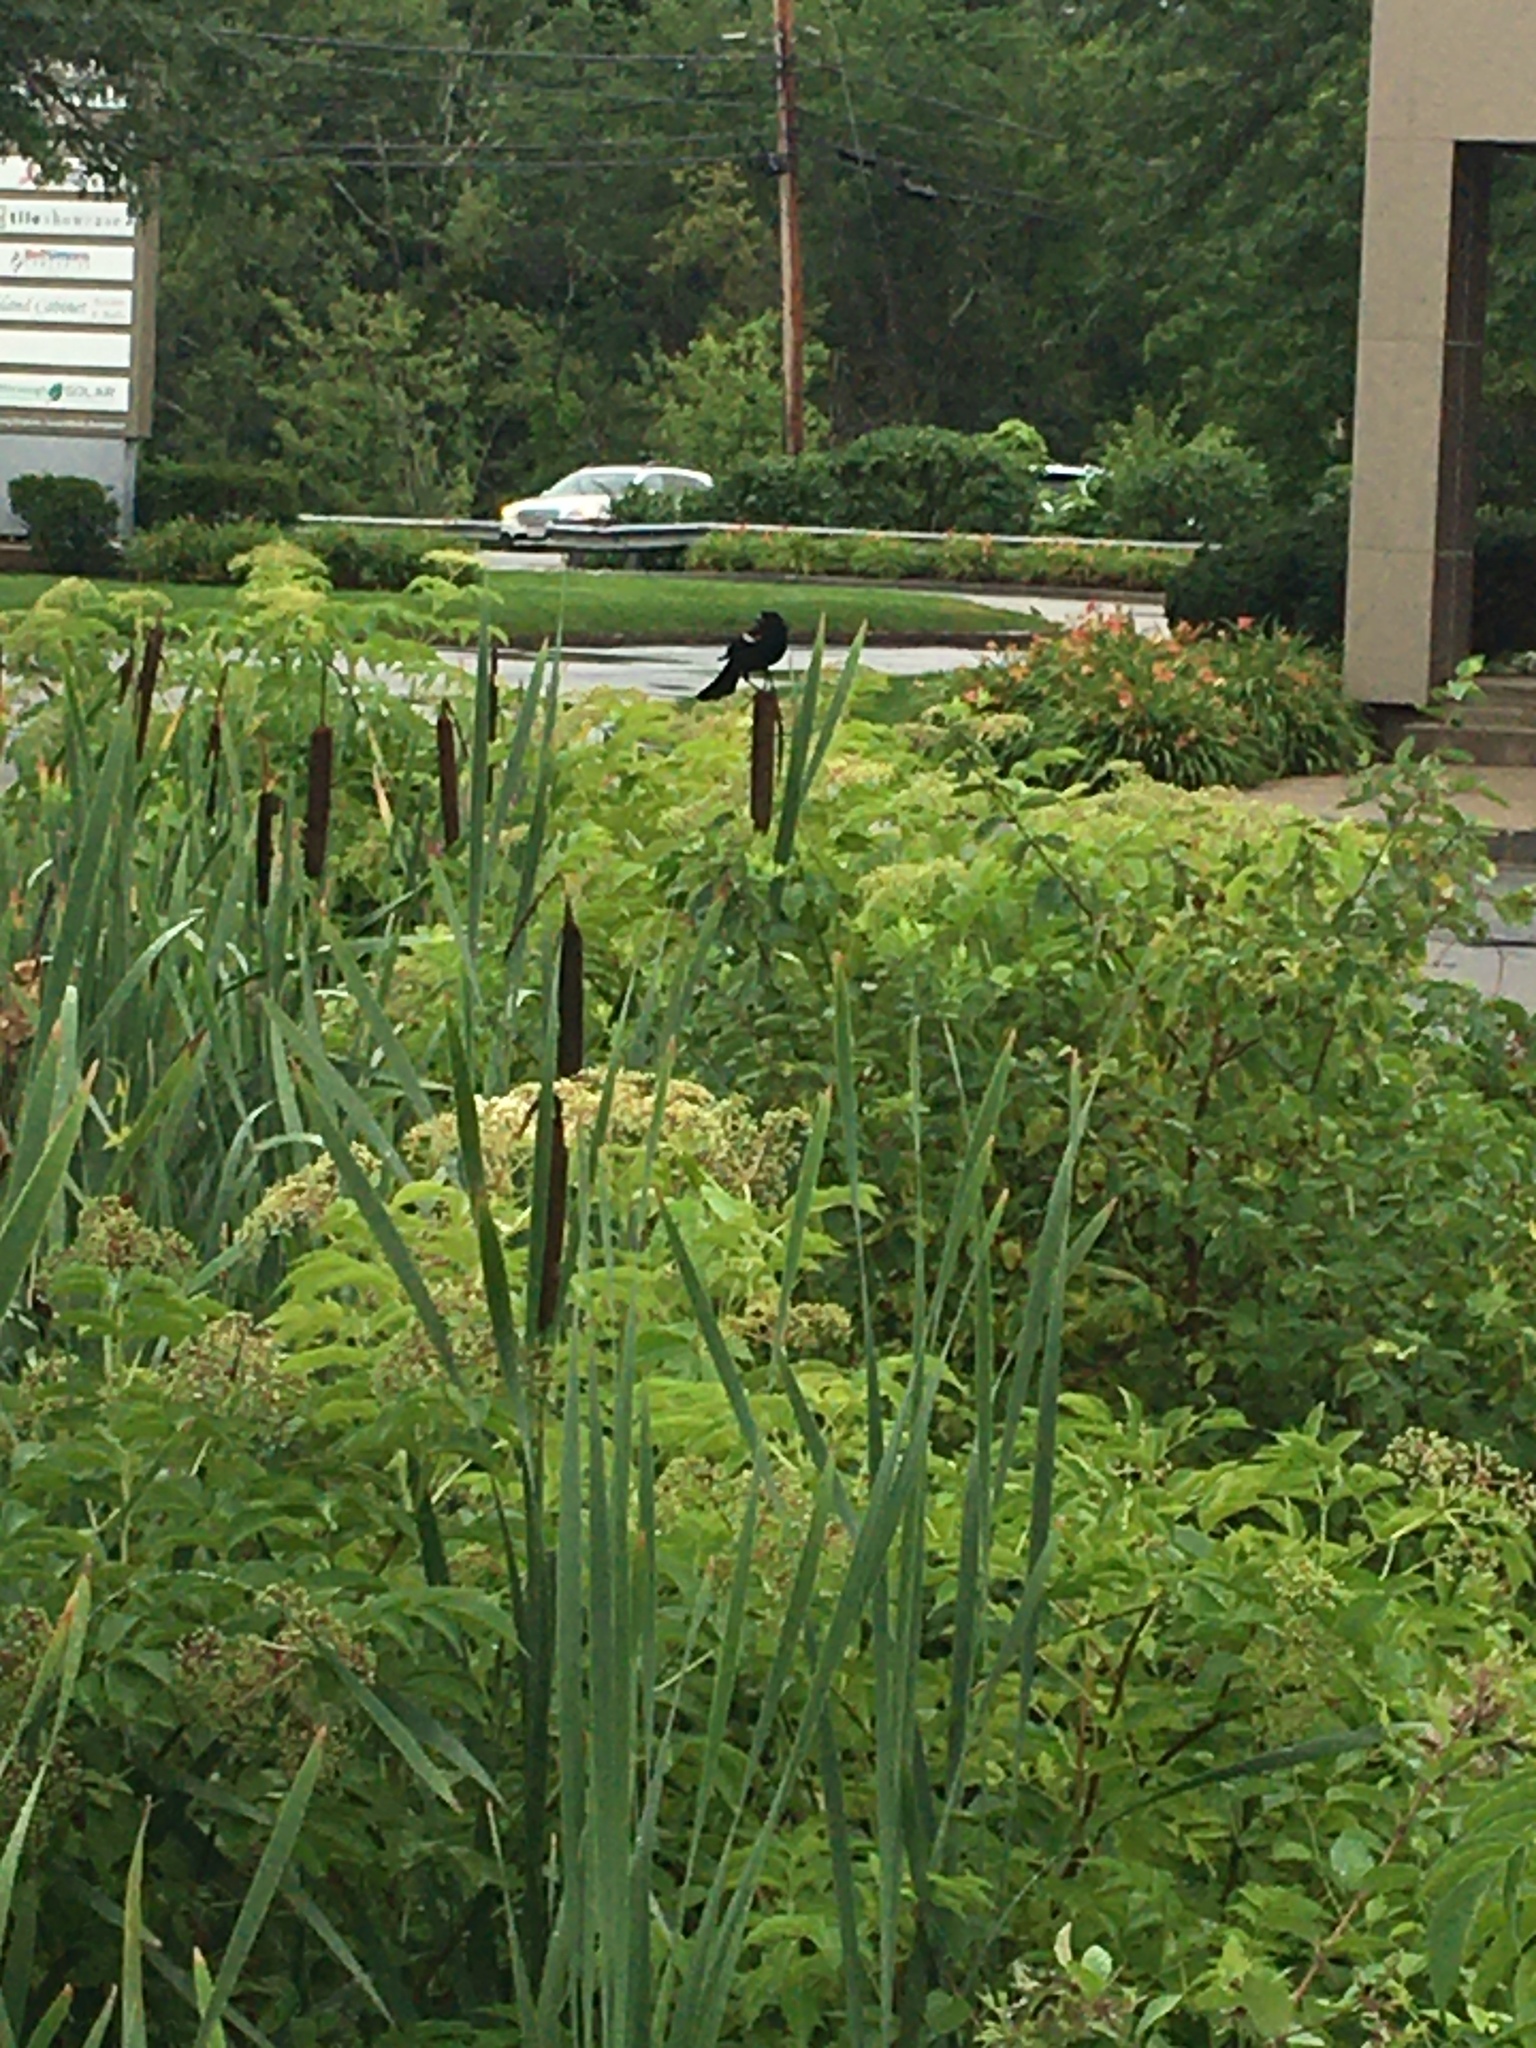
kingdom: Animalia
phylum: Chordata
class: Aves
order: Passeriformes
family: Icteridae
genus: Agelaius
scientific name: Agelaius phoeniceus
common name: Red-winged blackbird
